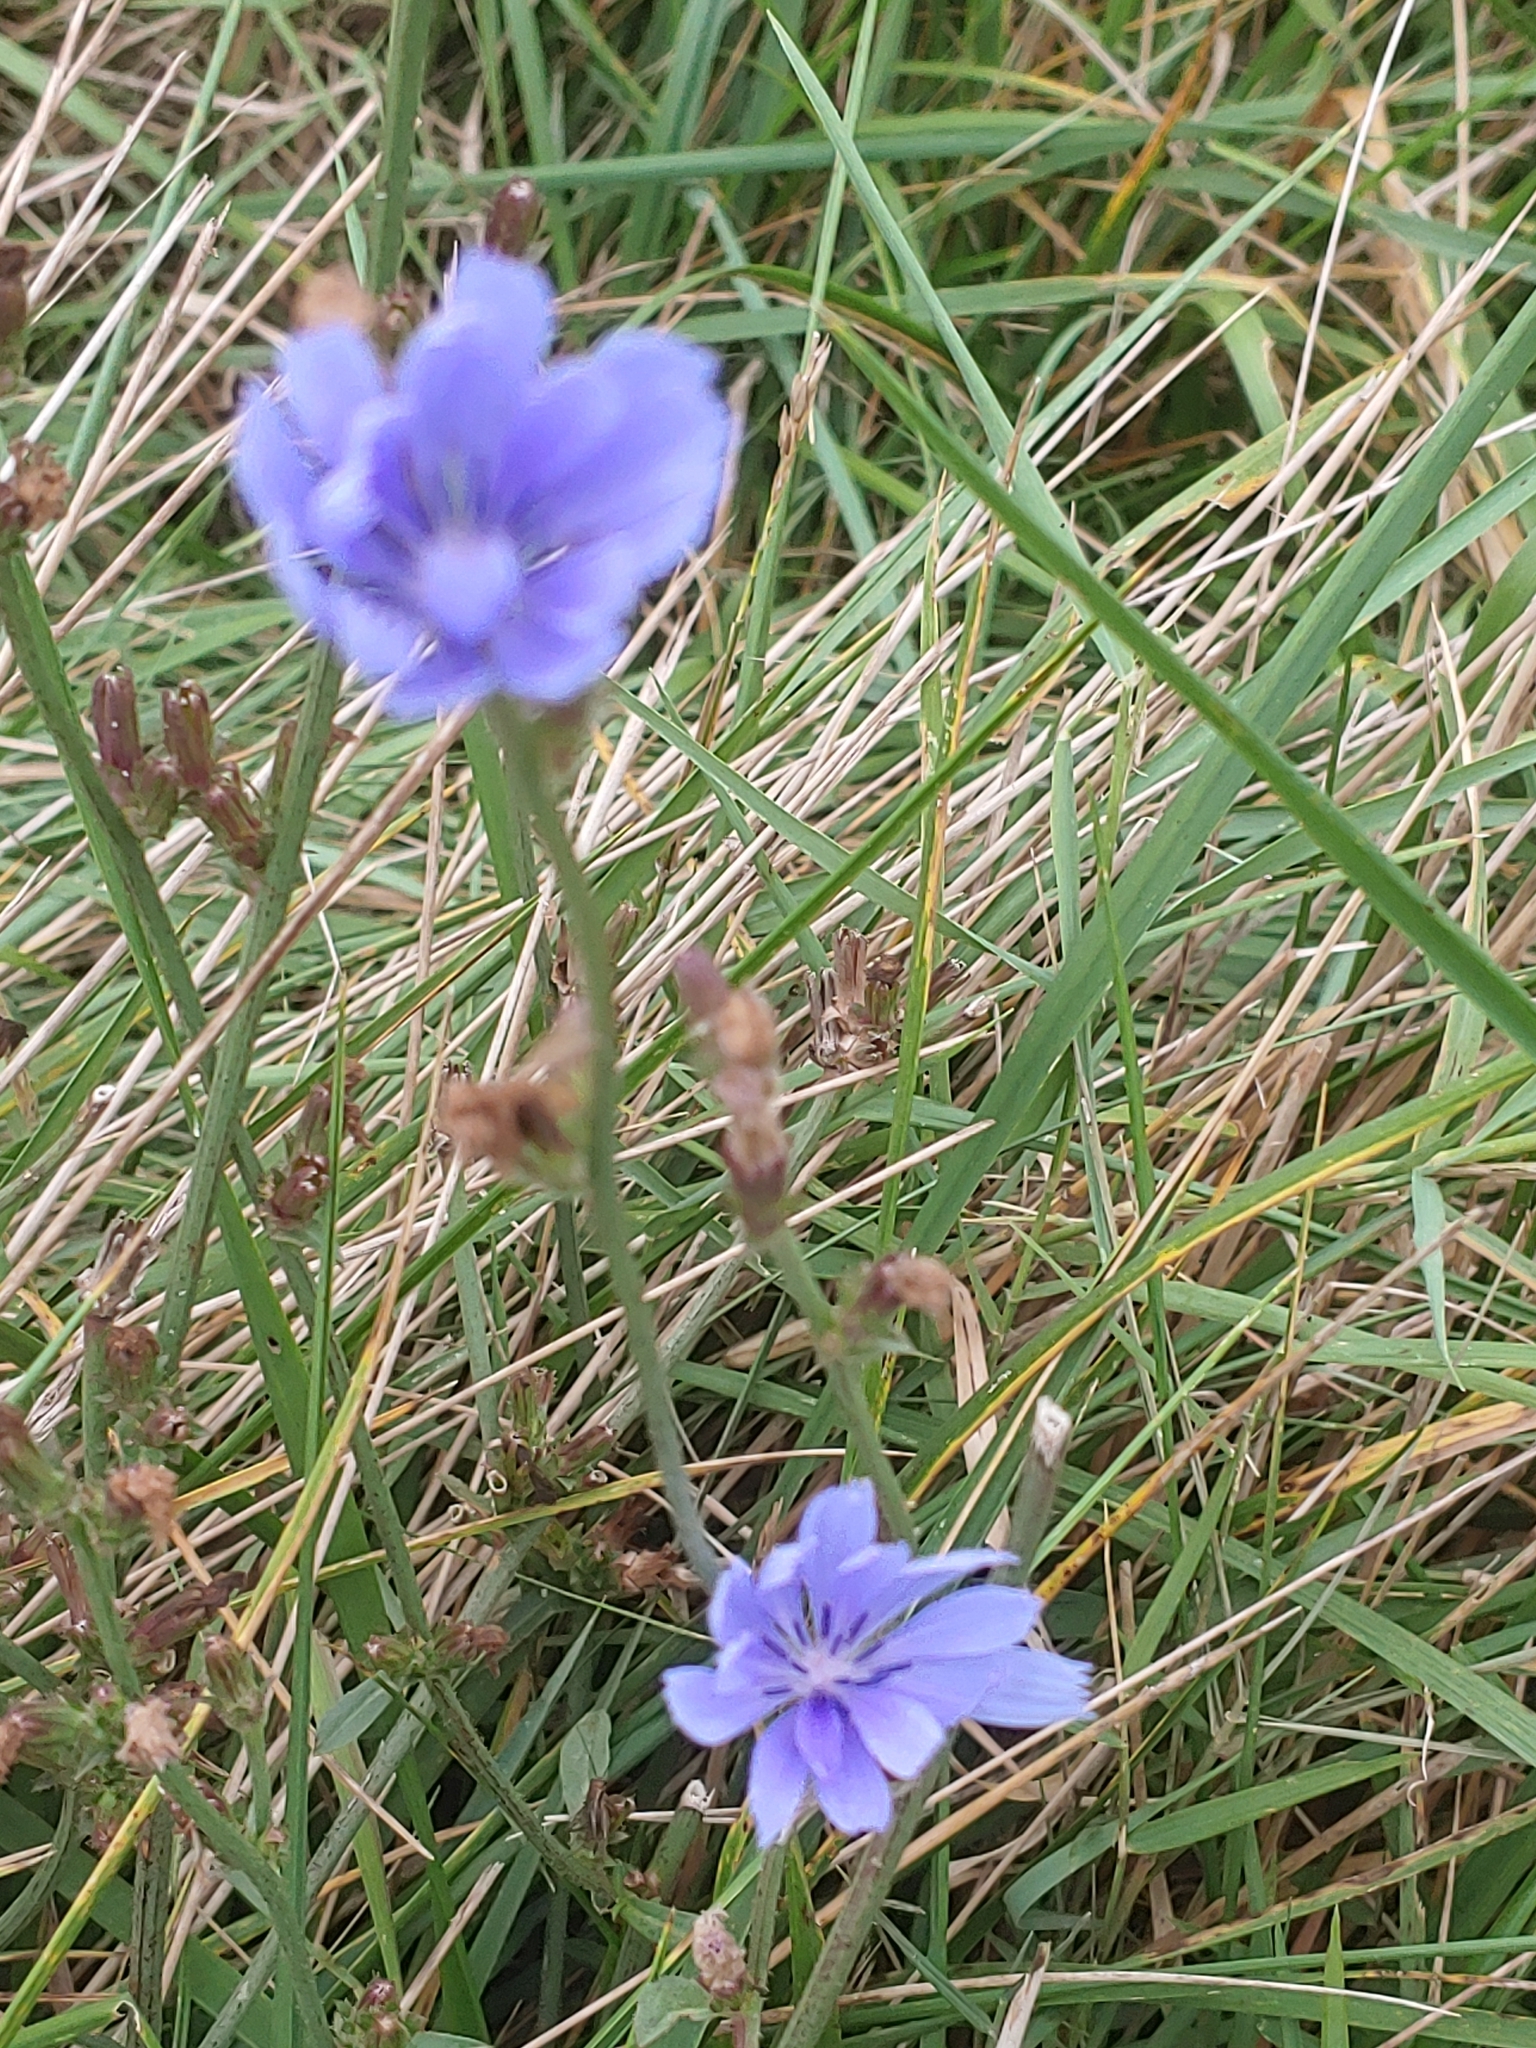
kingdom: Plantae
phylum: Tracheophyta
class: Magnoliopsida
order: Asterales
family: Asteraceae
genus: Cichorium
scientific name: Cichorium intybus
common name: Chicory
